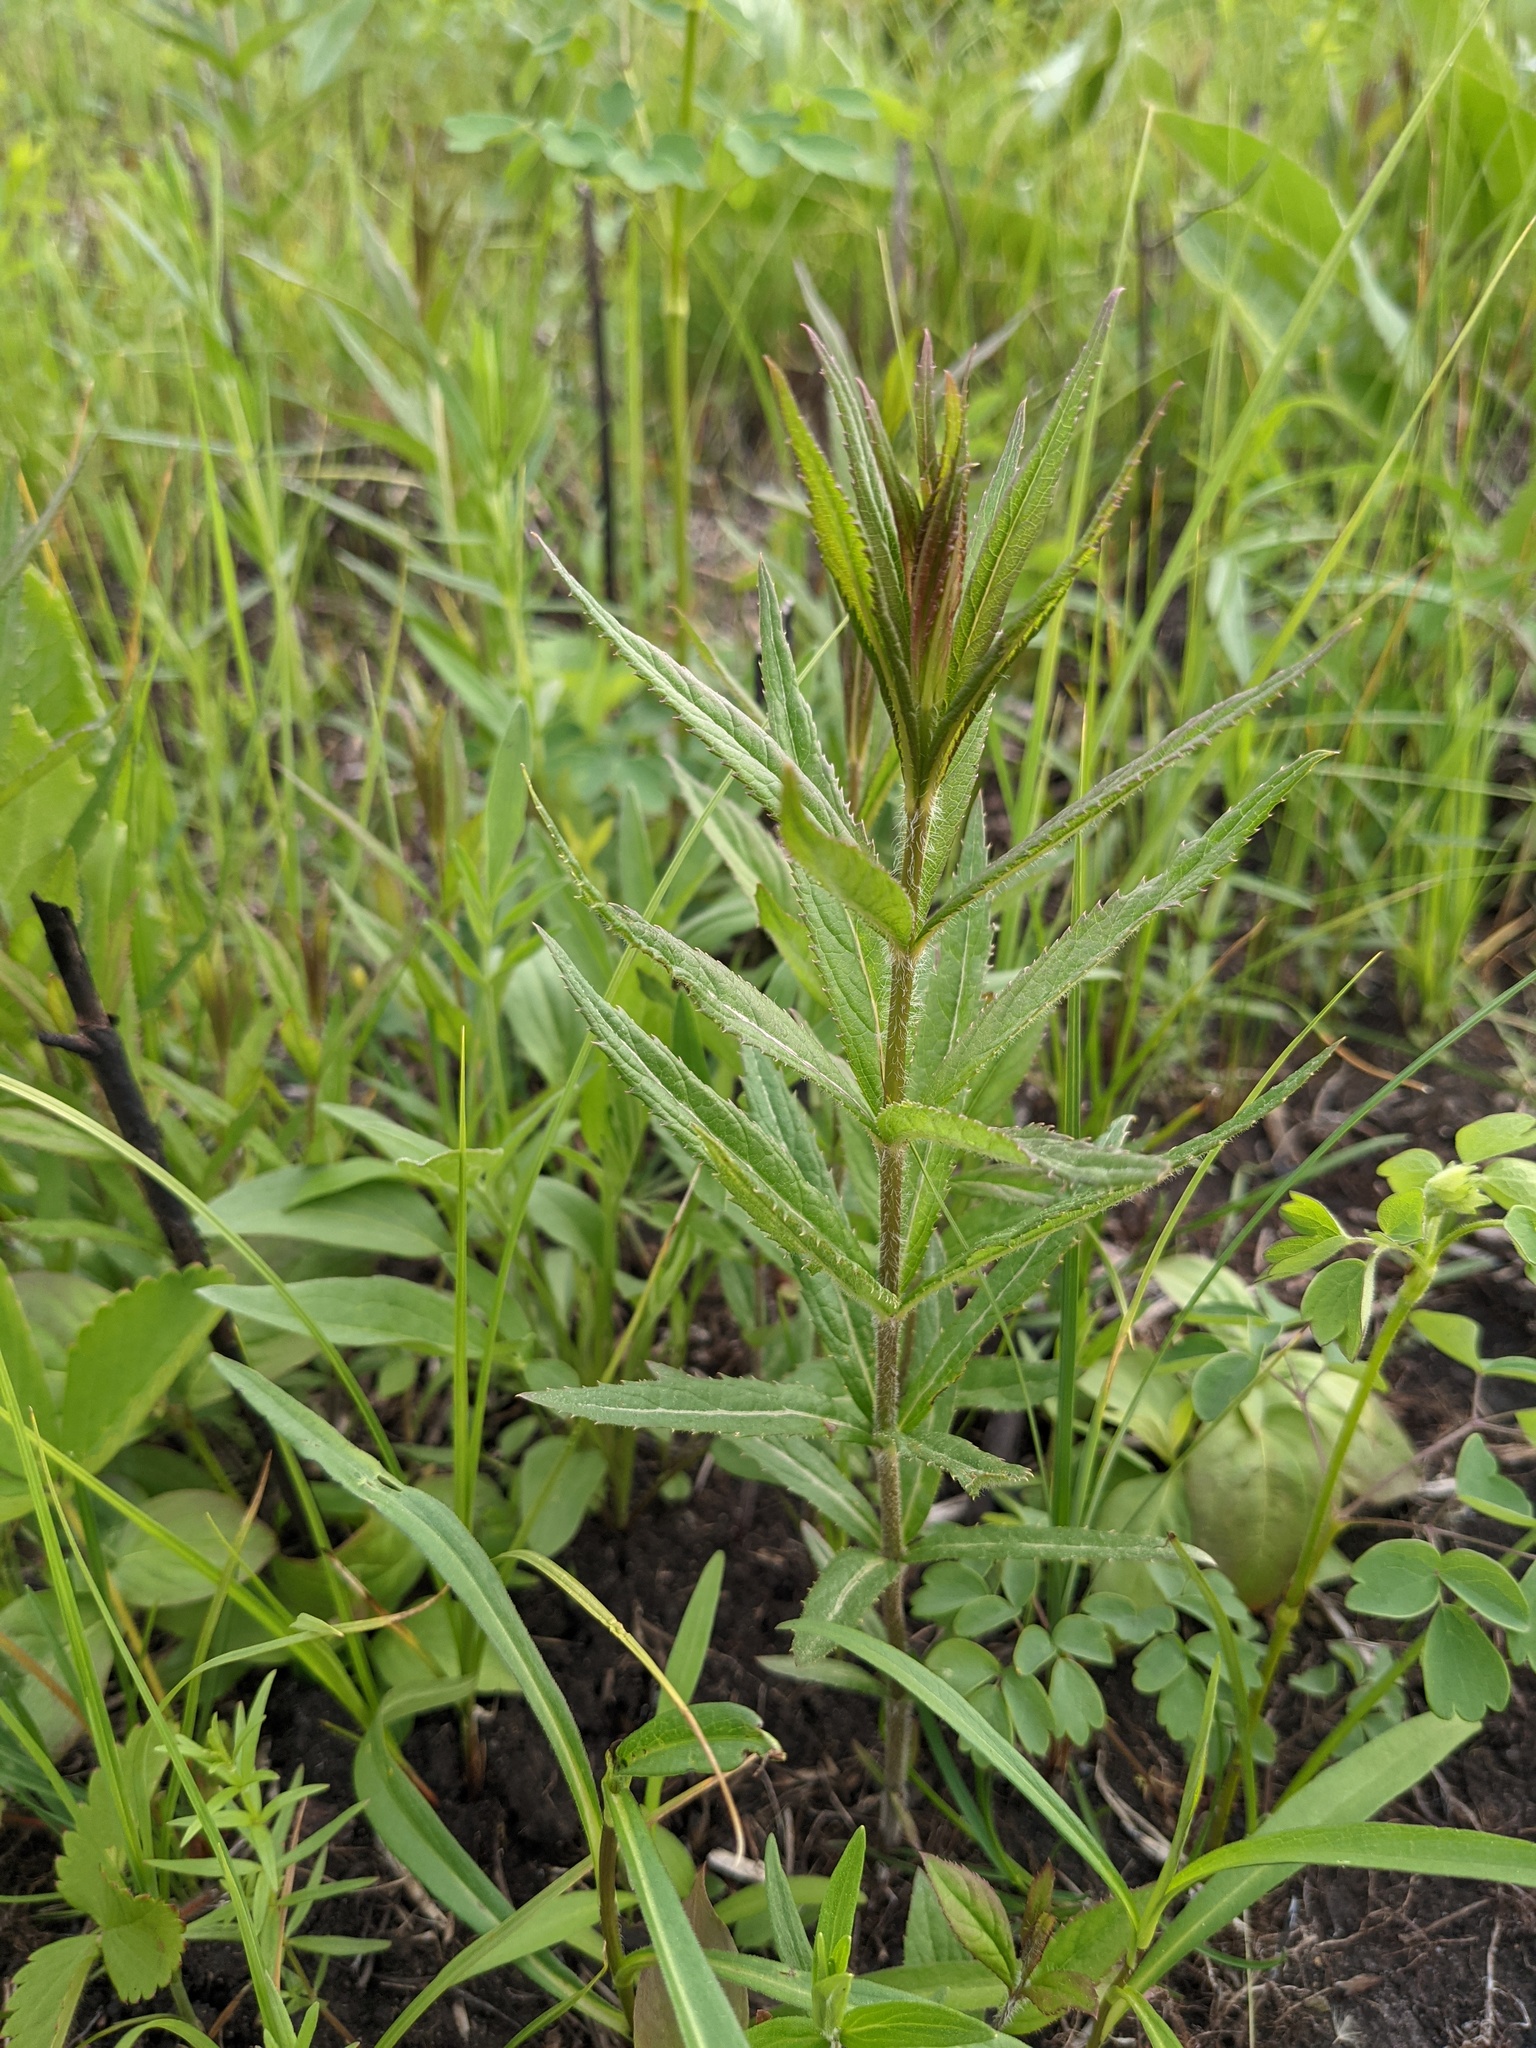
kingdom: Plantae
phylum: Tracheophyta
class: Magnoliopsida
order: Lamiales
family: Plantaginaceae
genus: Veronicastrum
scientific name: Veronicastrum virginicum
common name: Blackroot
